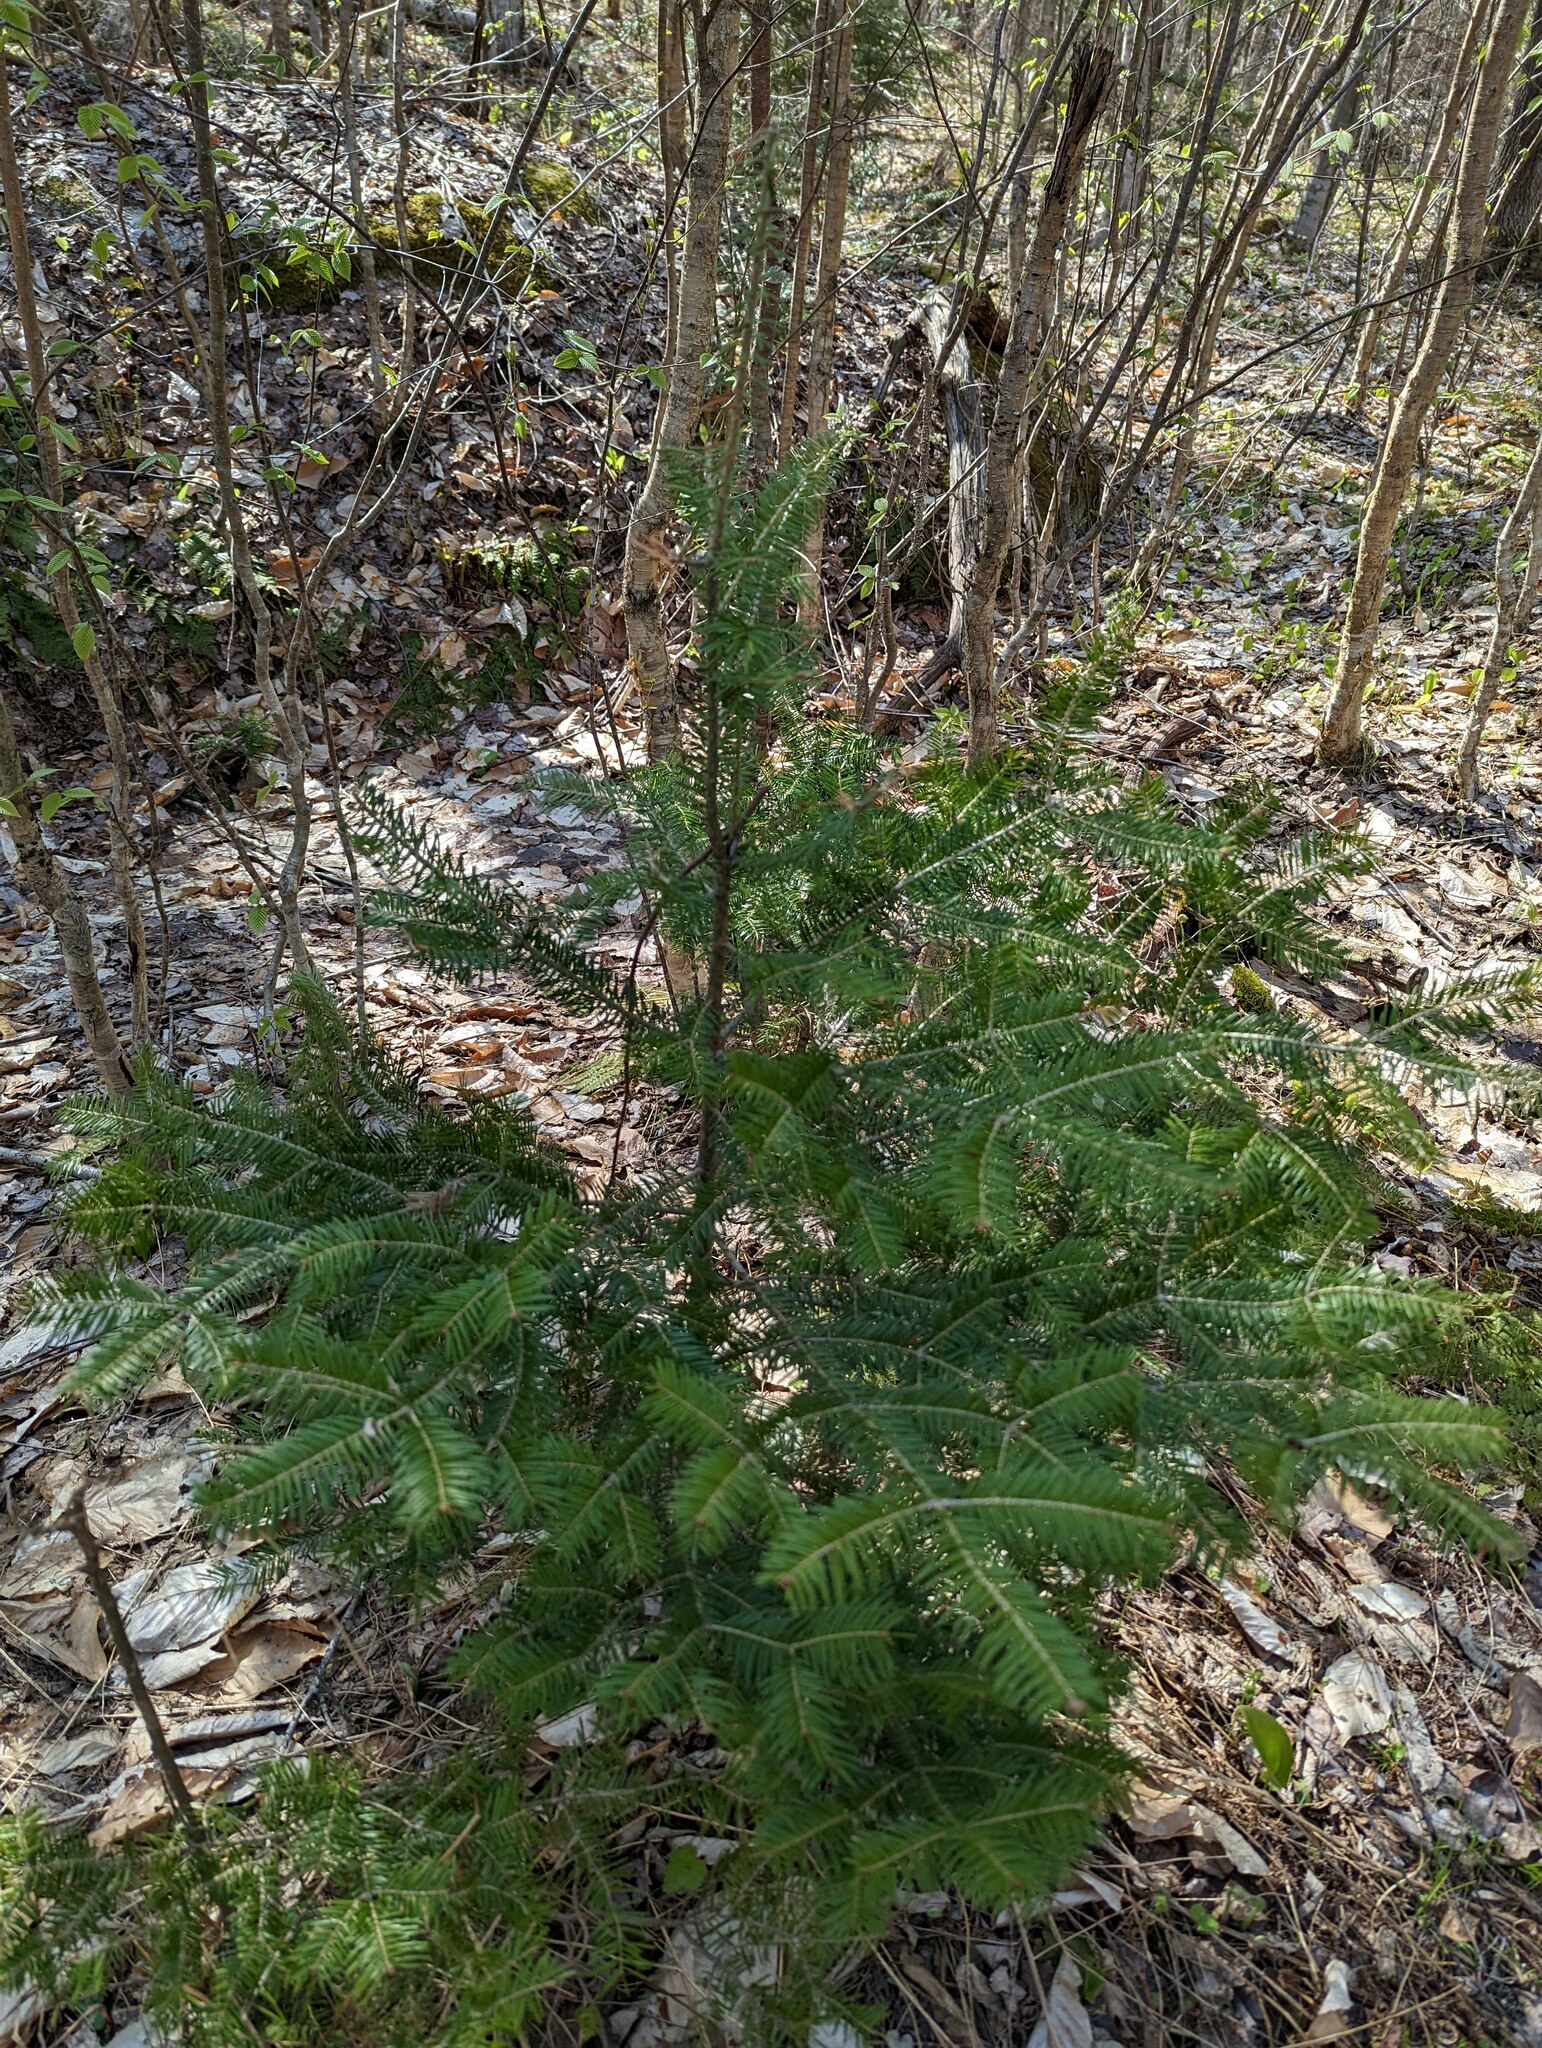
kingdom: Plantae
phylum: Tracheophyta
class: Pinopsida
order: Pinales
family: Pinaceae
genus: Abies
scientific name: Abies balsamea
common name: Balsam fir
